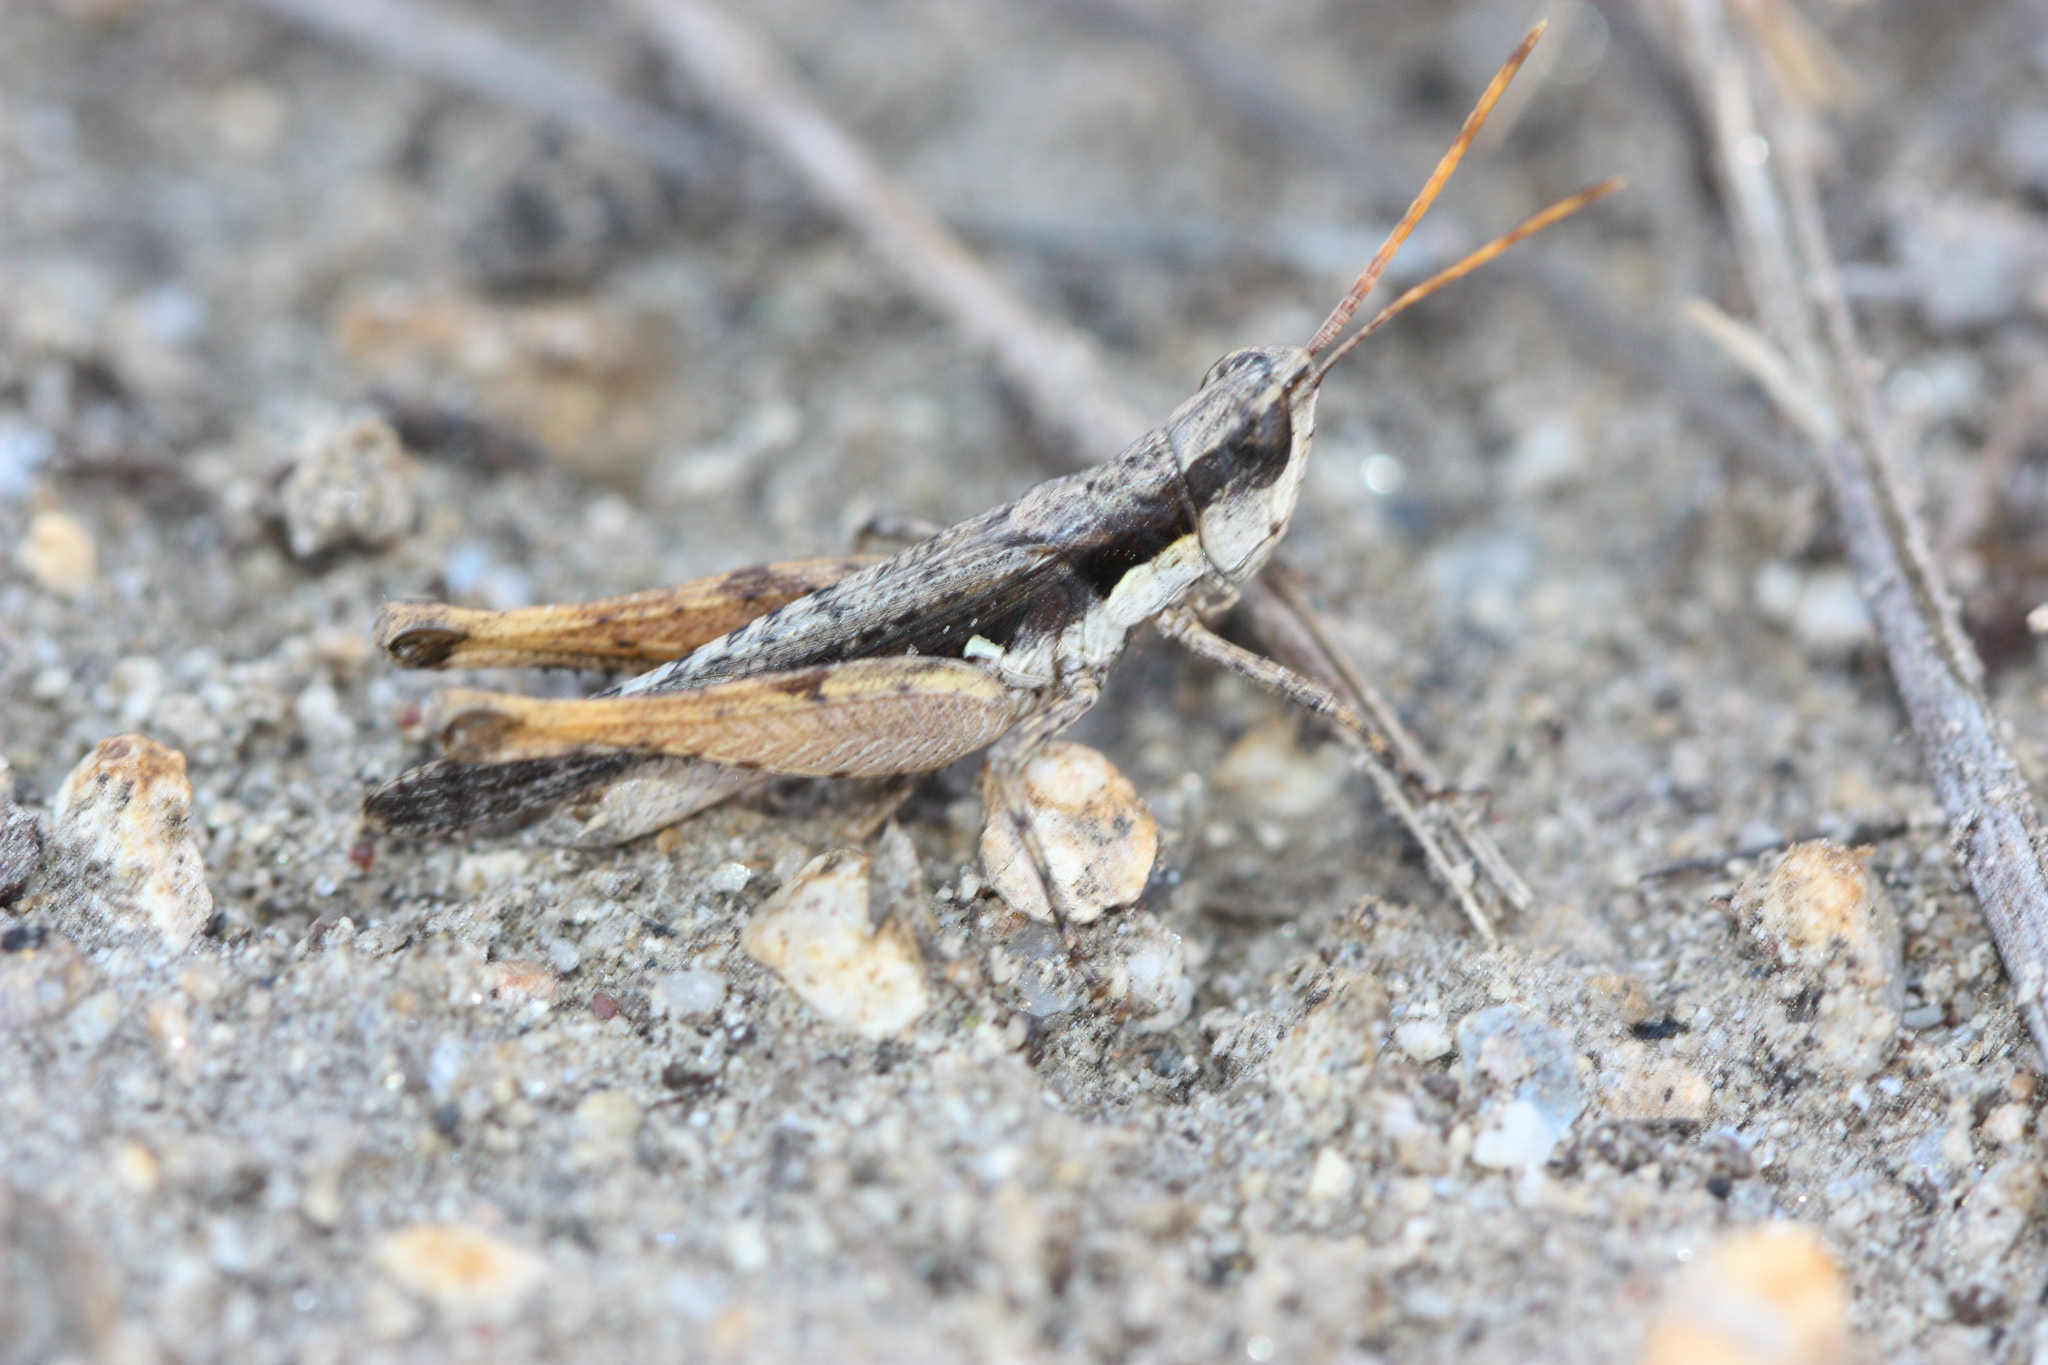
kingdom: Animalia
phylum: Arthropoda
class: Insecta
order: Orthoptera
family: Acrididae
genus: Horesidotes
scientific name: Horesidotes cinereus
